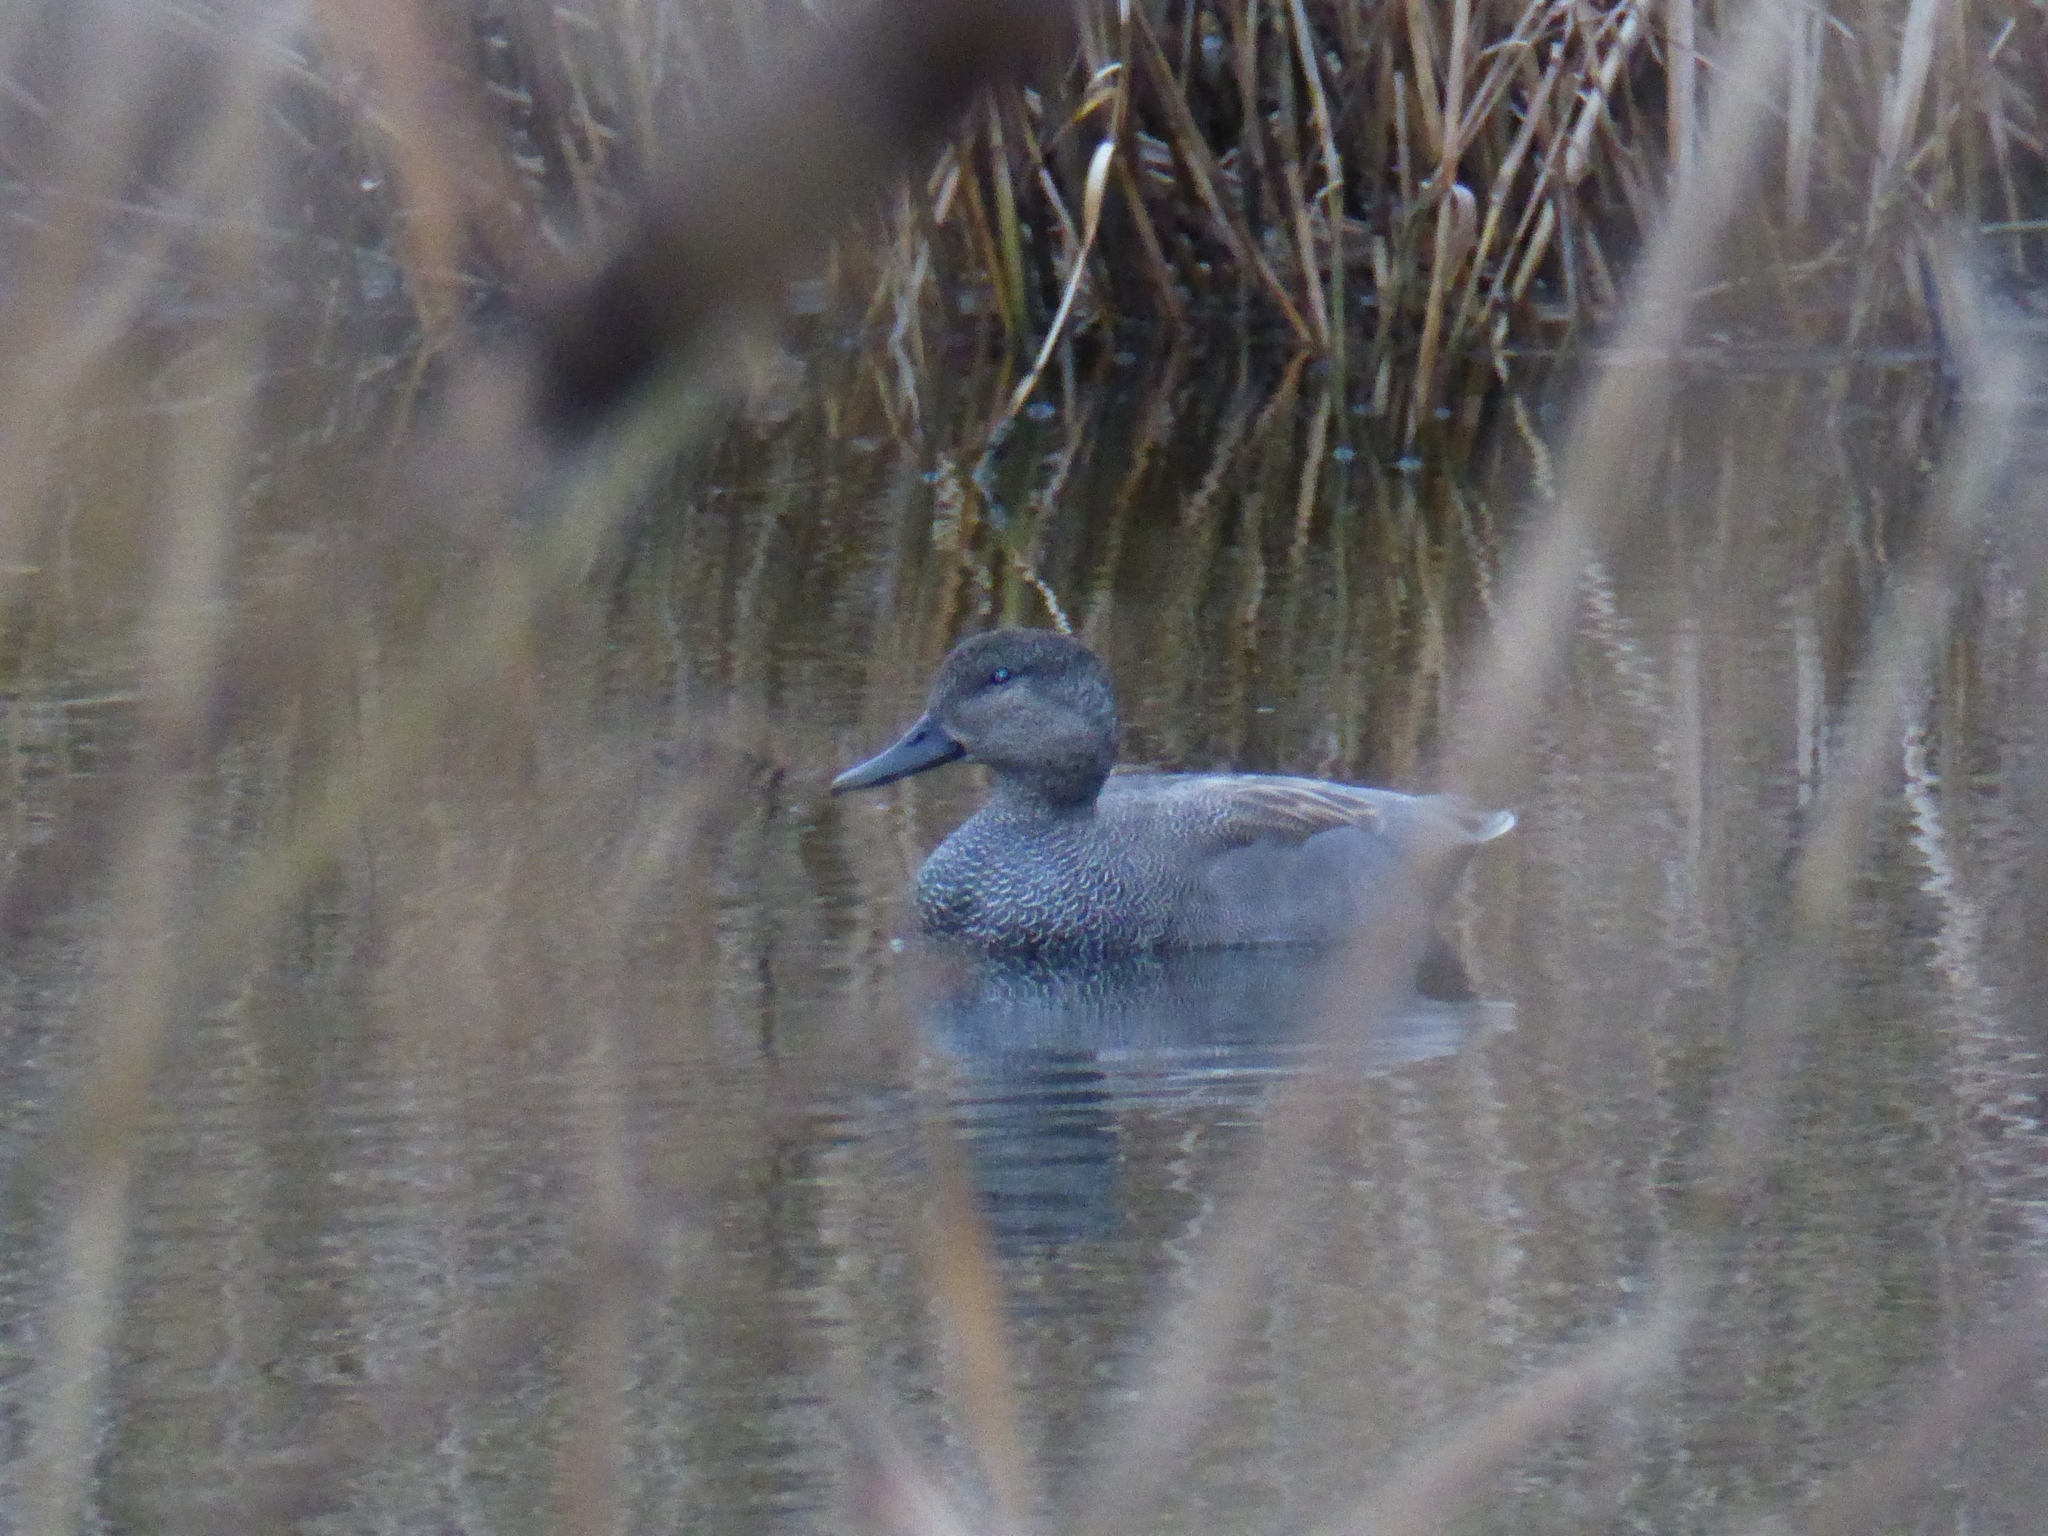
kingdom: Animalia
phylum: Chordata
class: Aves
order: Anseriformes
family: Anatidae
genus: Mareca
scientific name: Mareca strepera
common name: Gadwall
